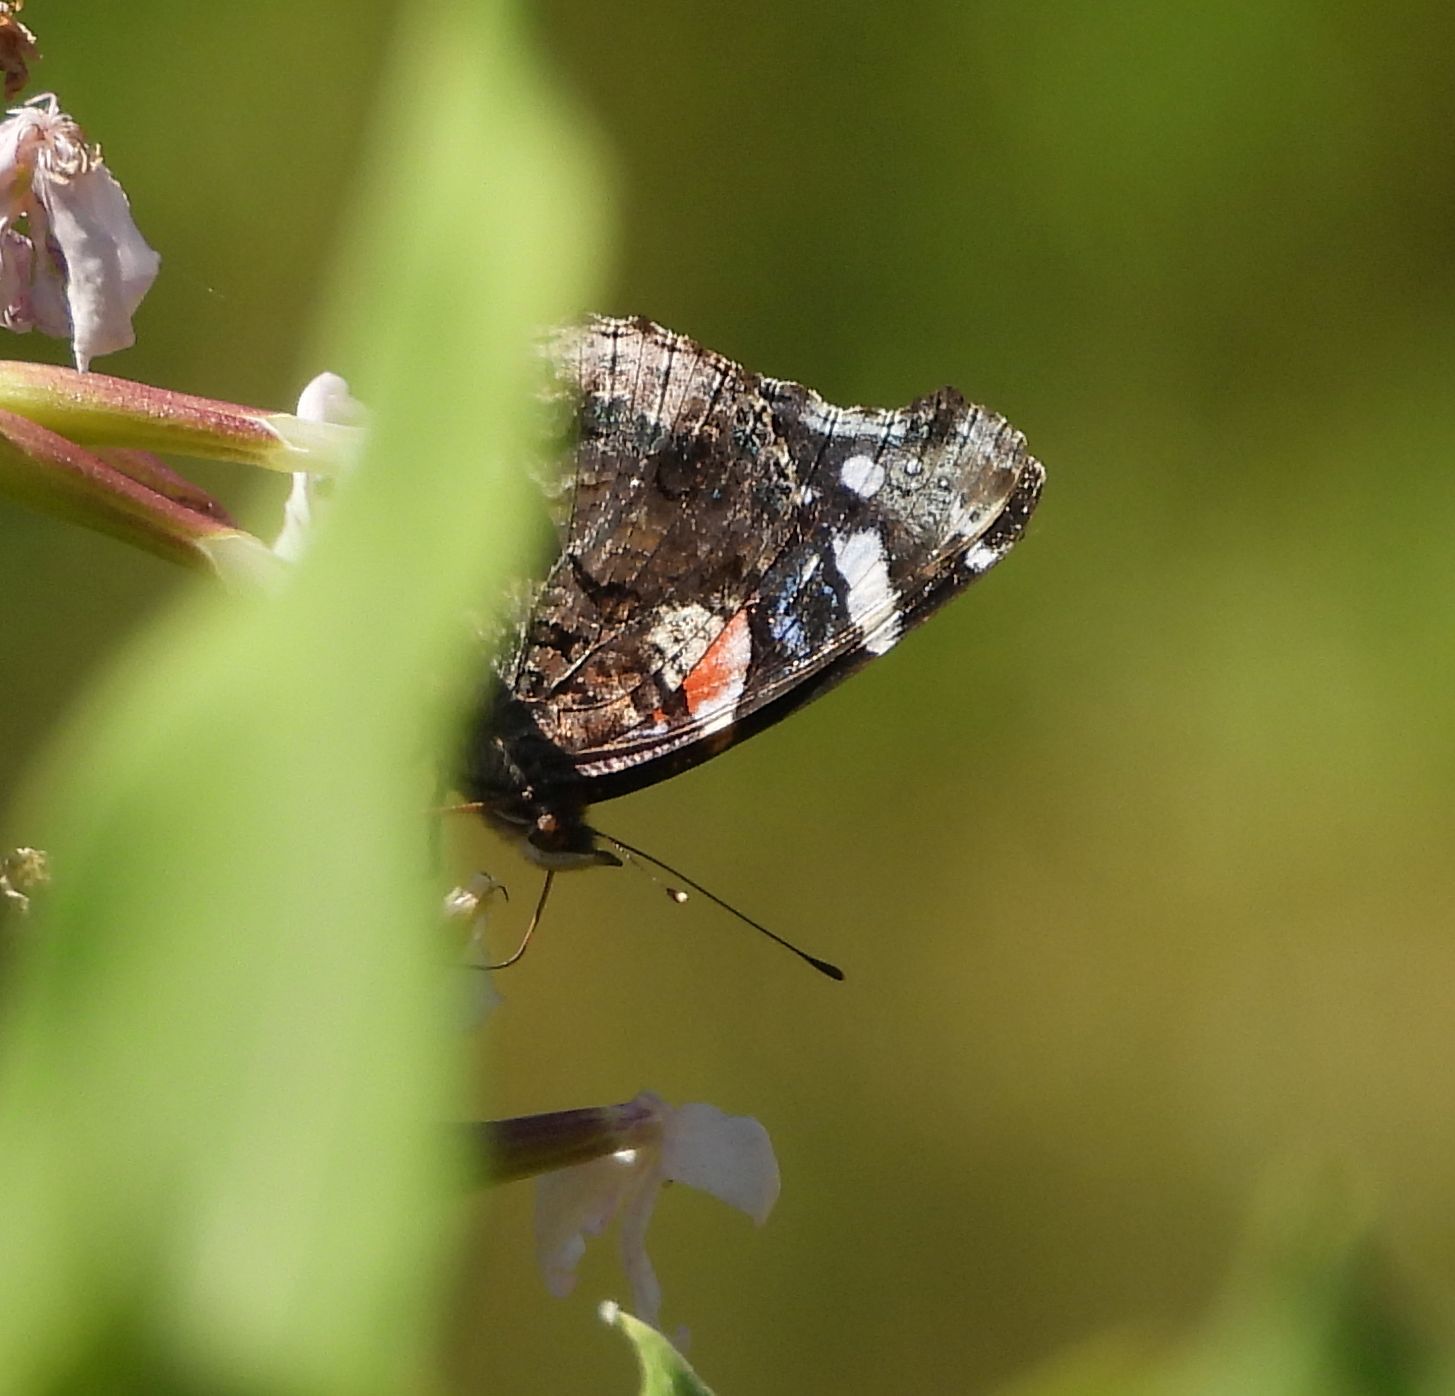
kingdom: Animalia
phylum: Arthropoda
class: Insecta
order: Lepidoptera
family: Nymphalidae
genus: Vanessa
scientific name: Vanessa atalanta
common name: Red admiral
